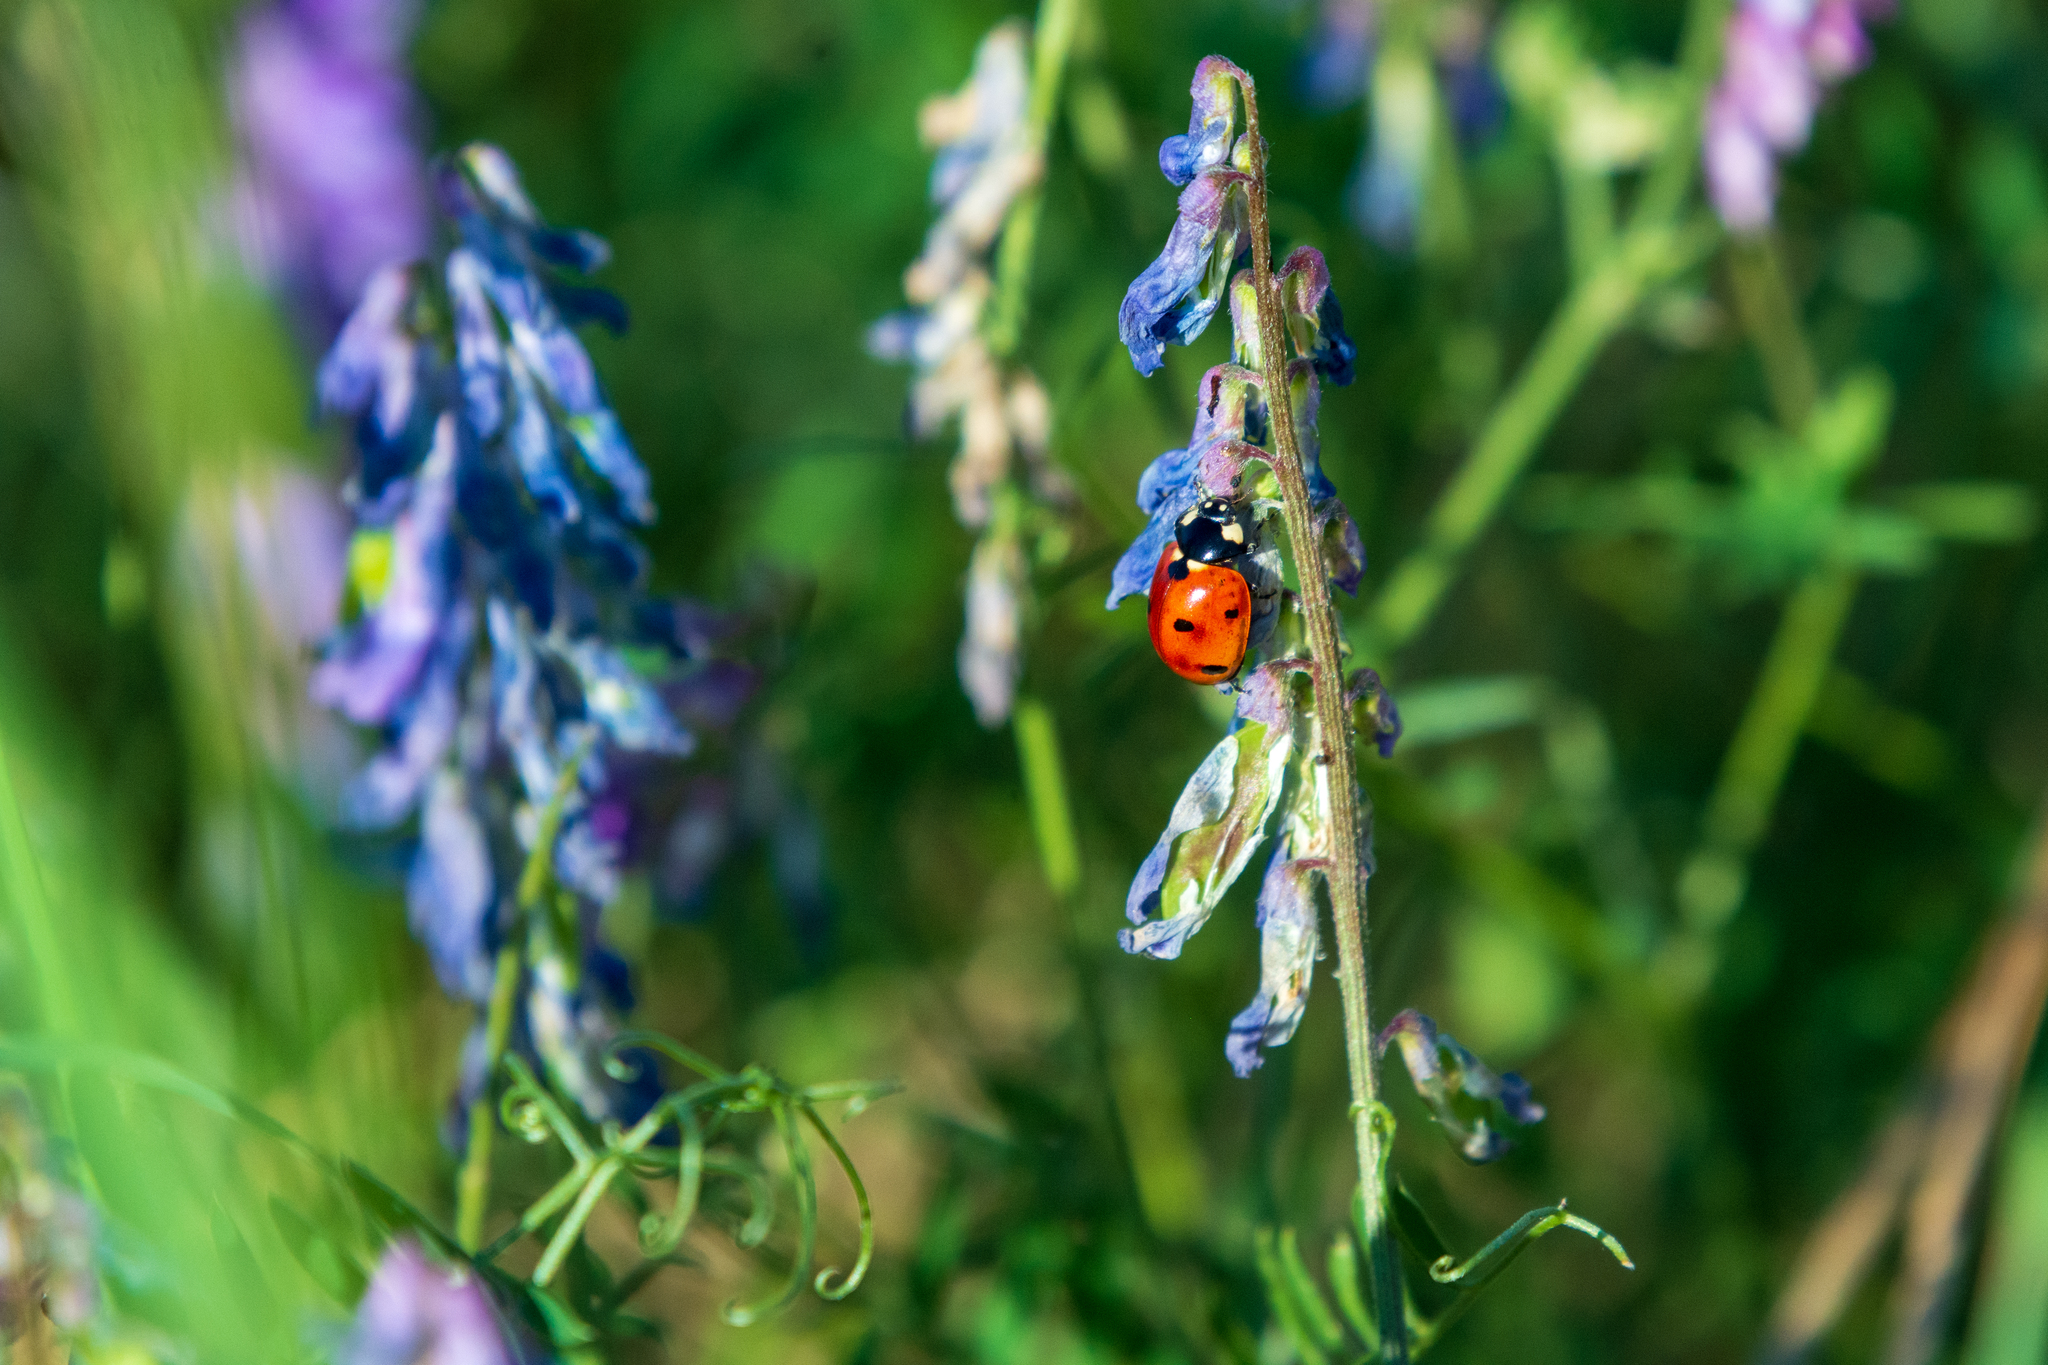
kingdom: Animalia
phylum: Arthropoda
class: Insecta
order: Coleoptera
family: Coccinellidae
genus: Coccinella
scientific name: Coccinella septempunctata
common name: Sevenspotted lady beetle
